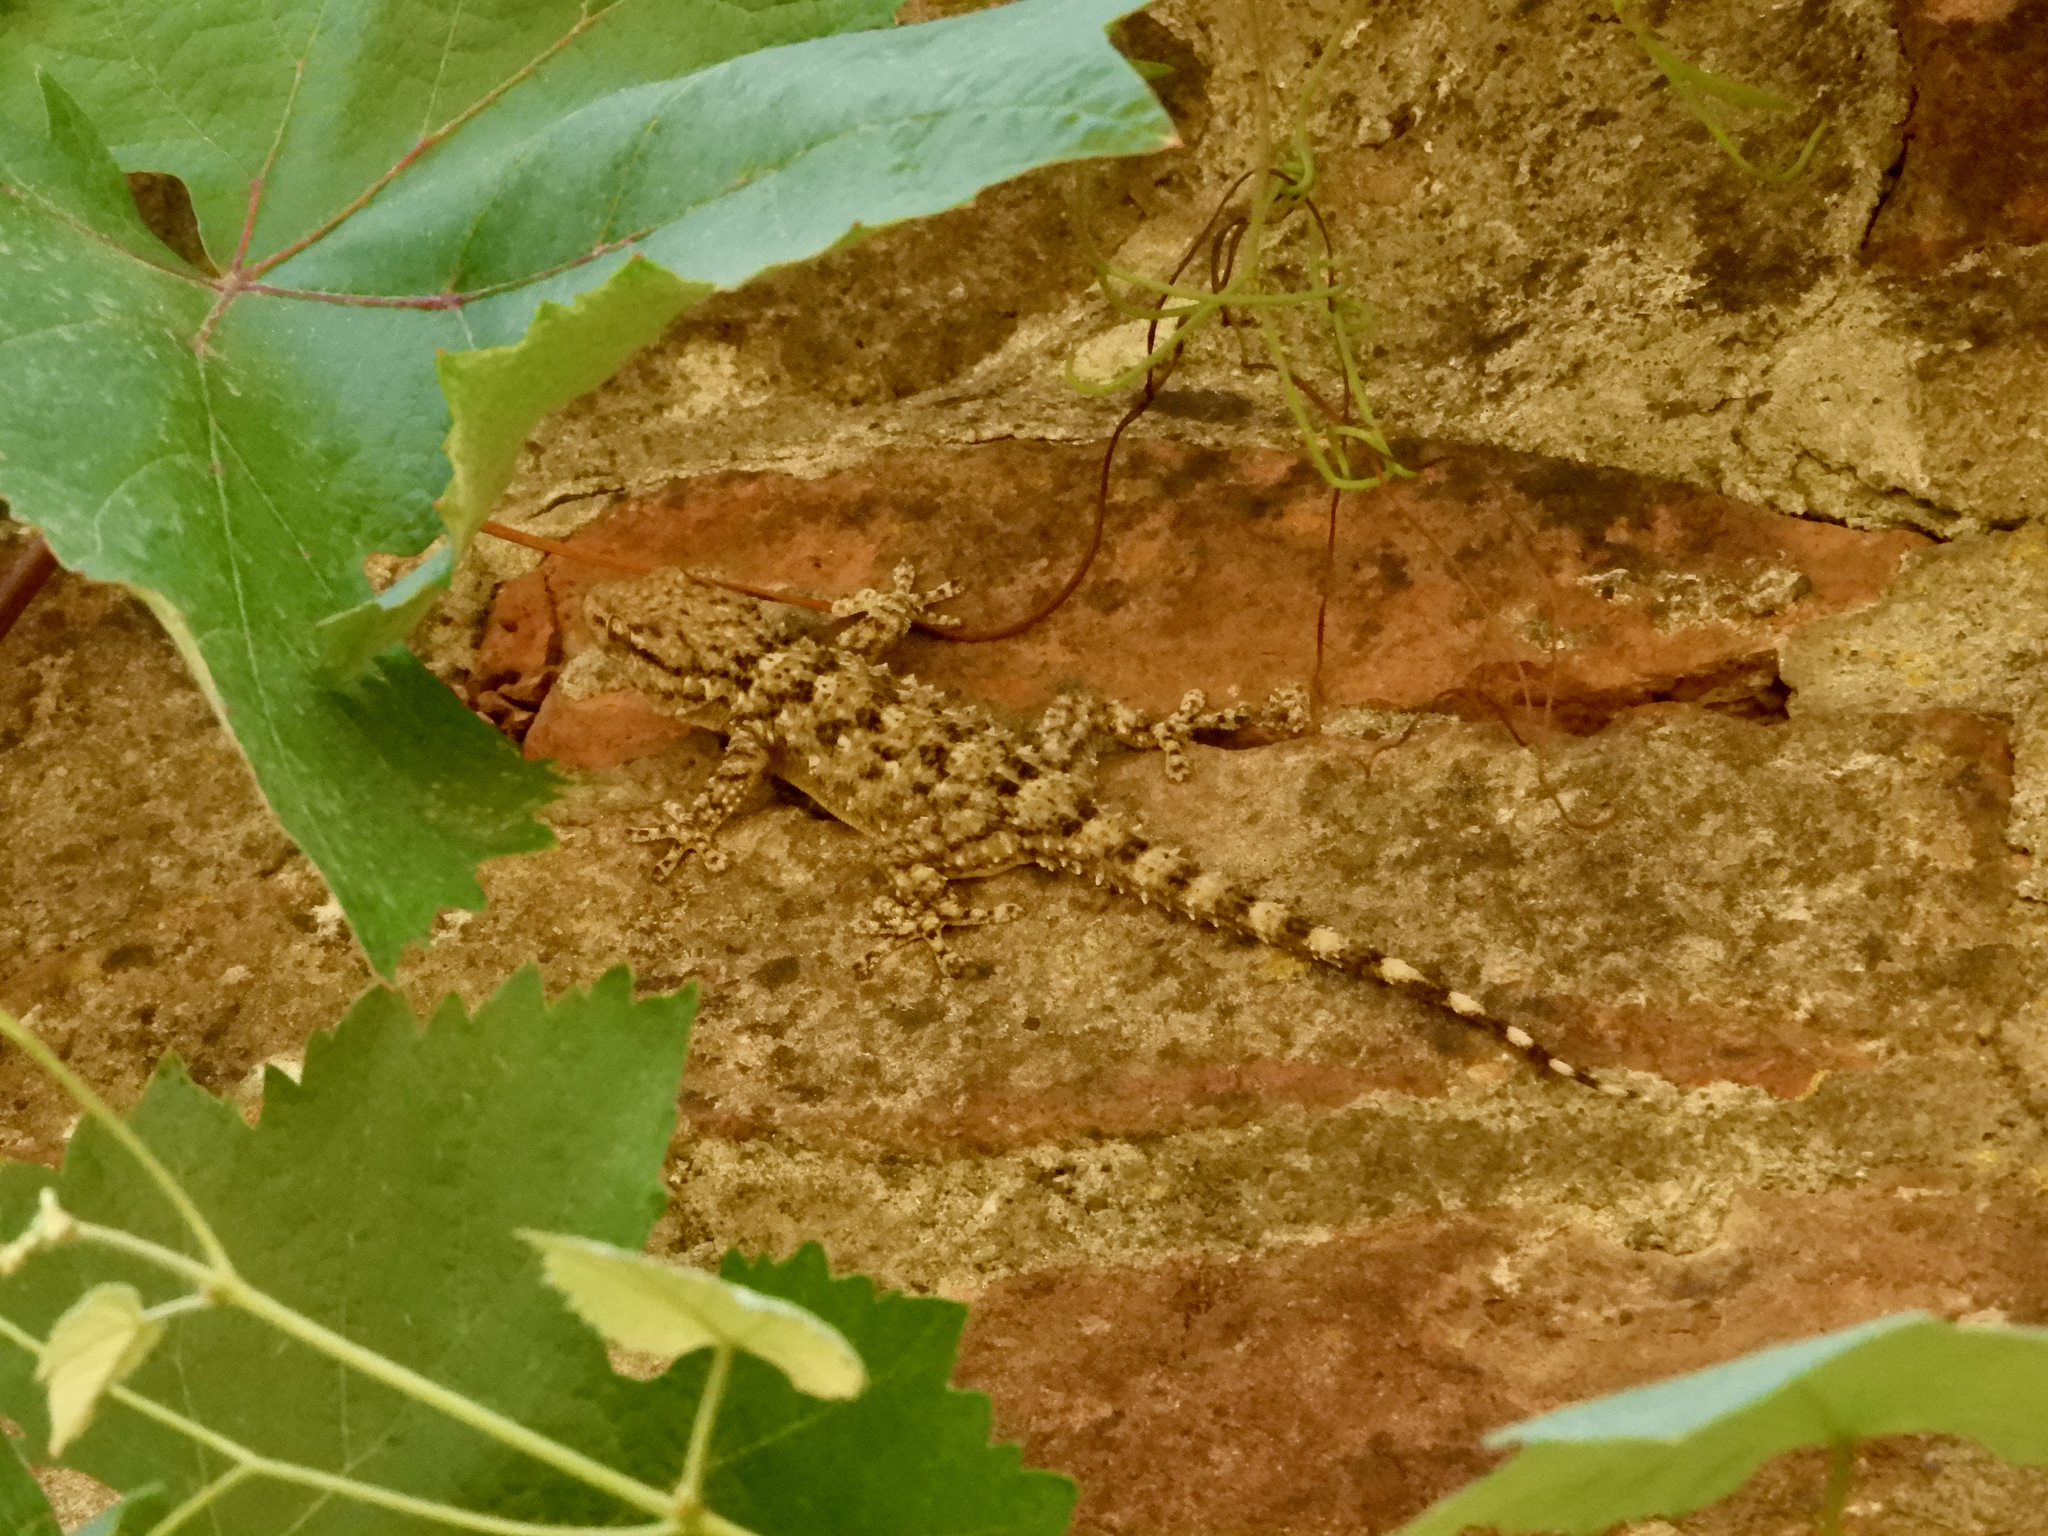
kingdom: Animalia
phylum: Chordata
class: Squamata
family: Phyllodactylidae
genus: Tarentola
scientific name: Tarentola mauritanica
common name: Moorish gecko
